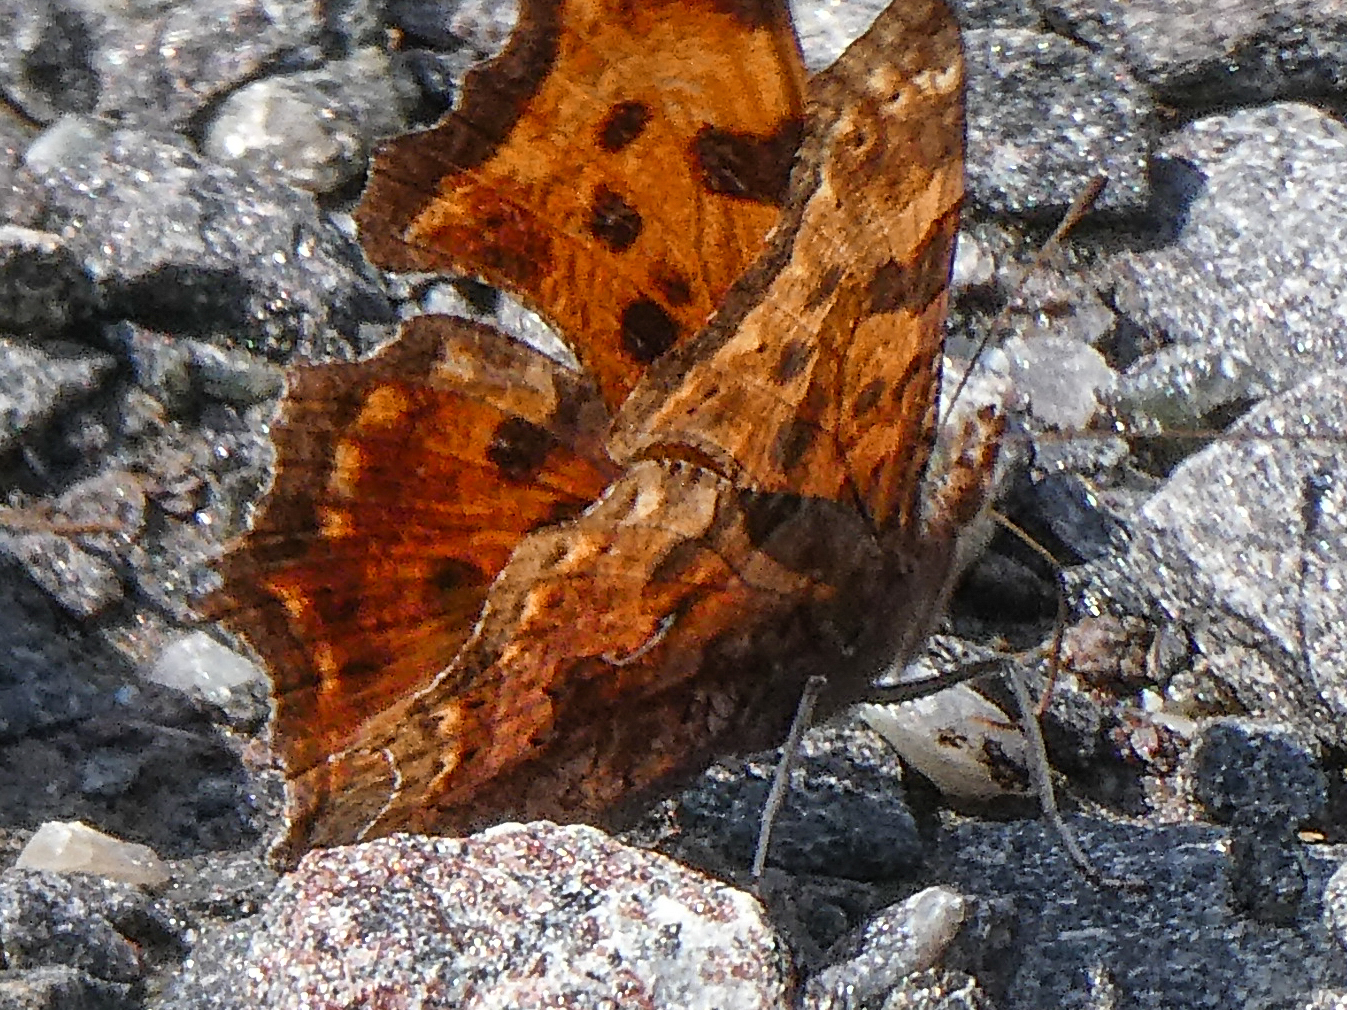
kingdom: Animalia
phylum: Arthropoda
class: Insecta
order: Lepidoptera
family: Nymphalidae
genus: Polygonia
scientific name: Polygonia comma
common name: Eastern comma
